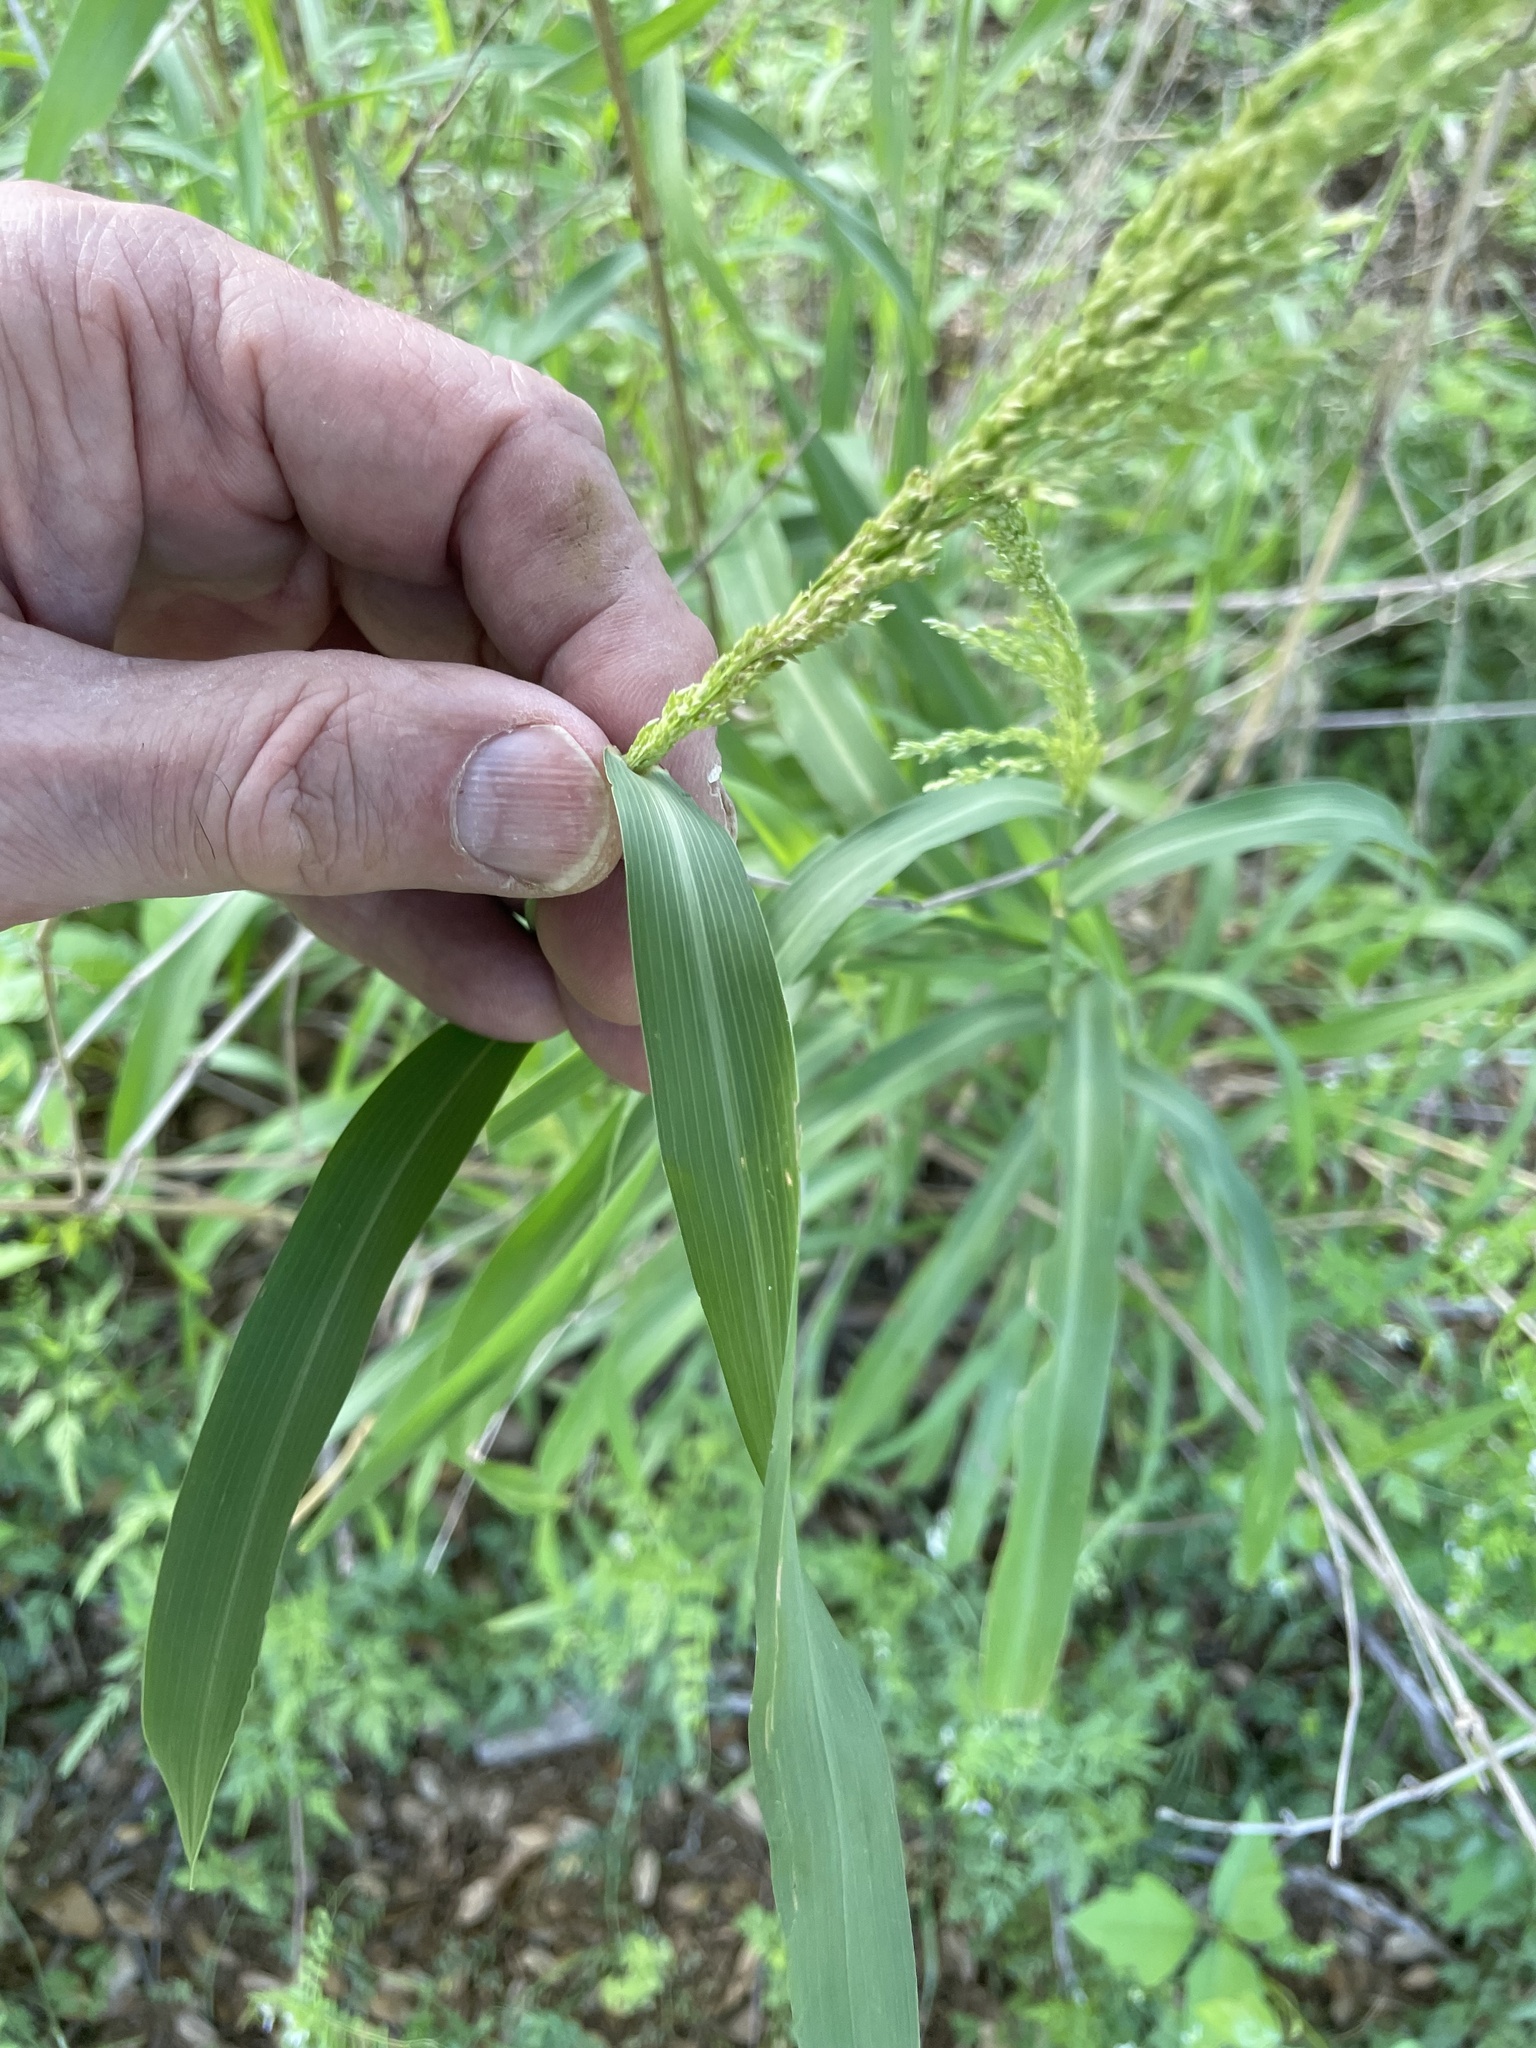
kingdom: Plantae
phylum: Tracheophyta
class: Liliopsida
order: Poales
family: Poaceae
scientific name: Poaceae
